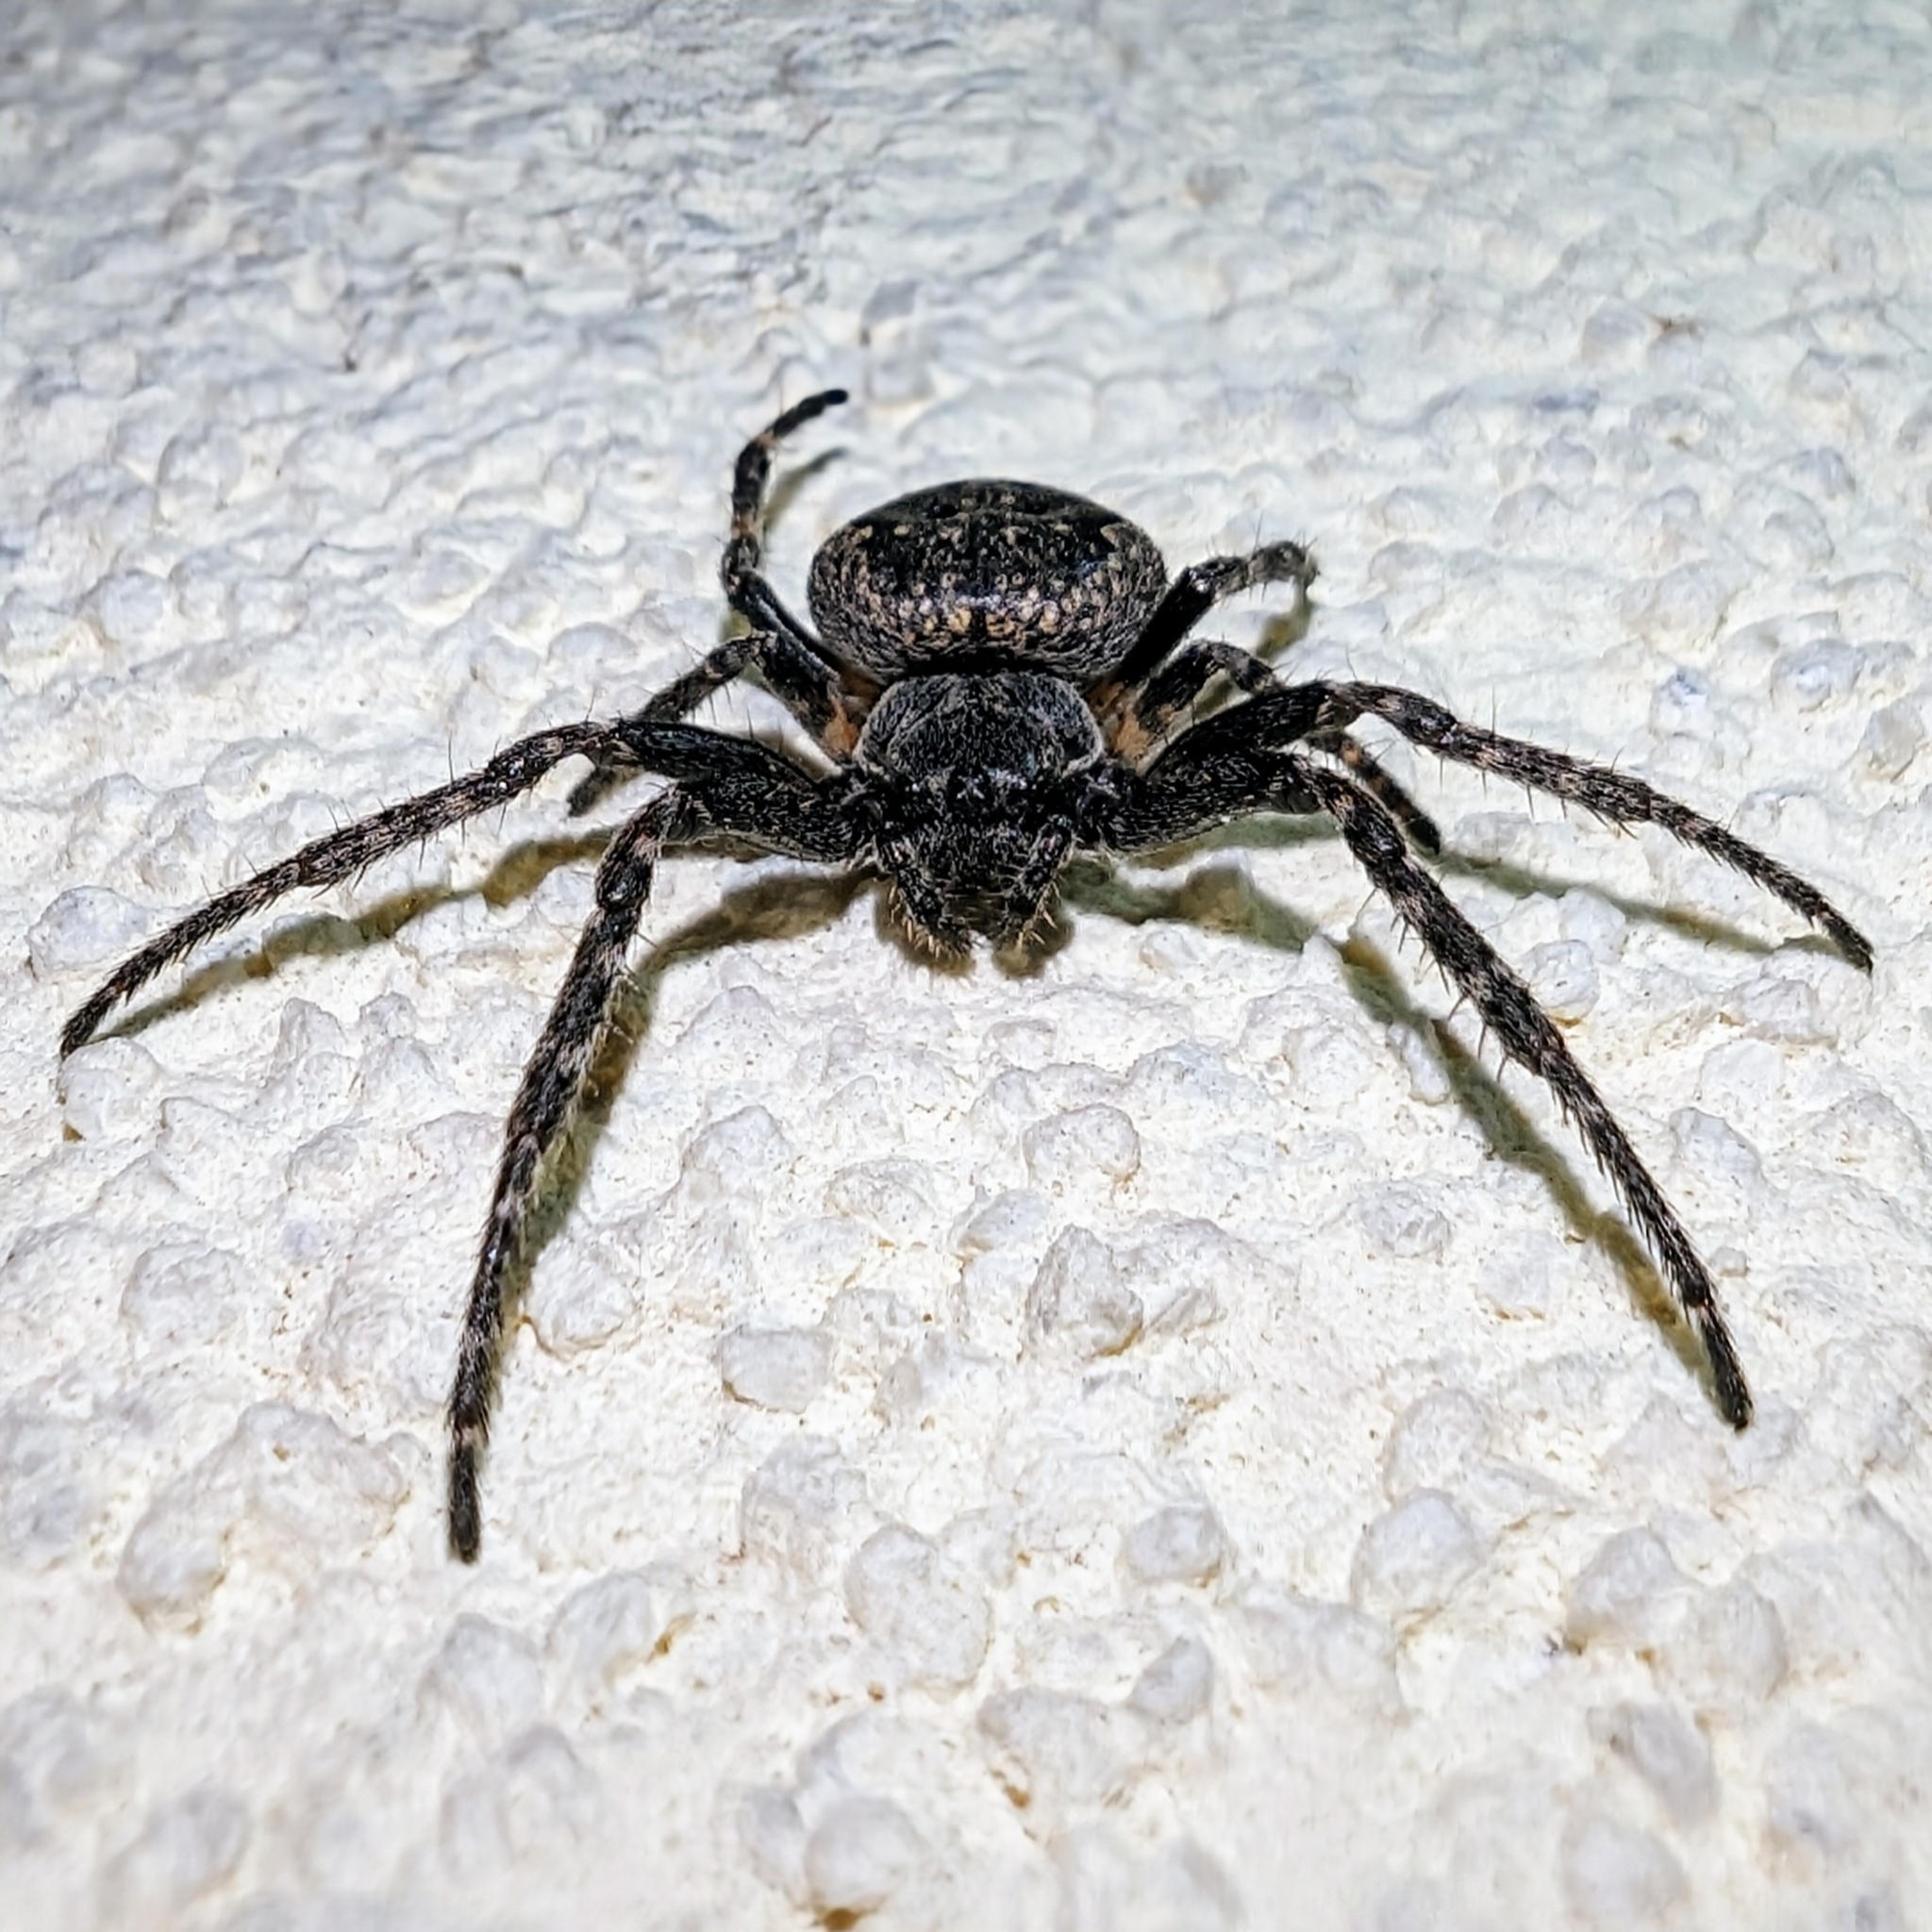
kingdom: Animalia
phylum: Arthropoda
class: Arachnida
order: Araneae
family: Araneidae
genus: Nuctenea
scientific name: Nuctenea umbratica
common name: Toad spider
